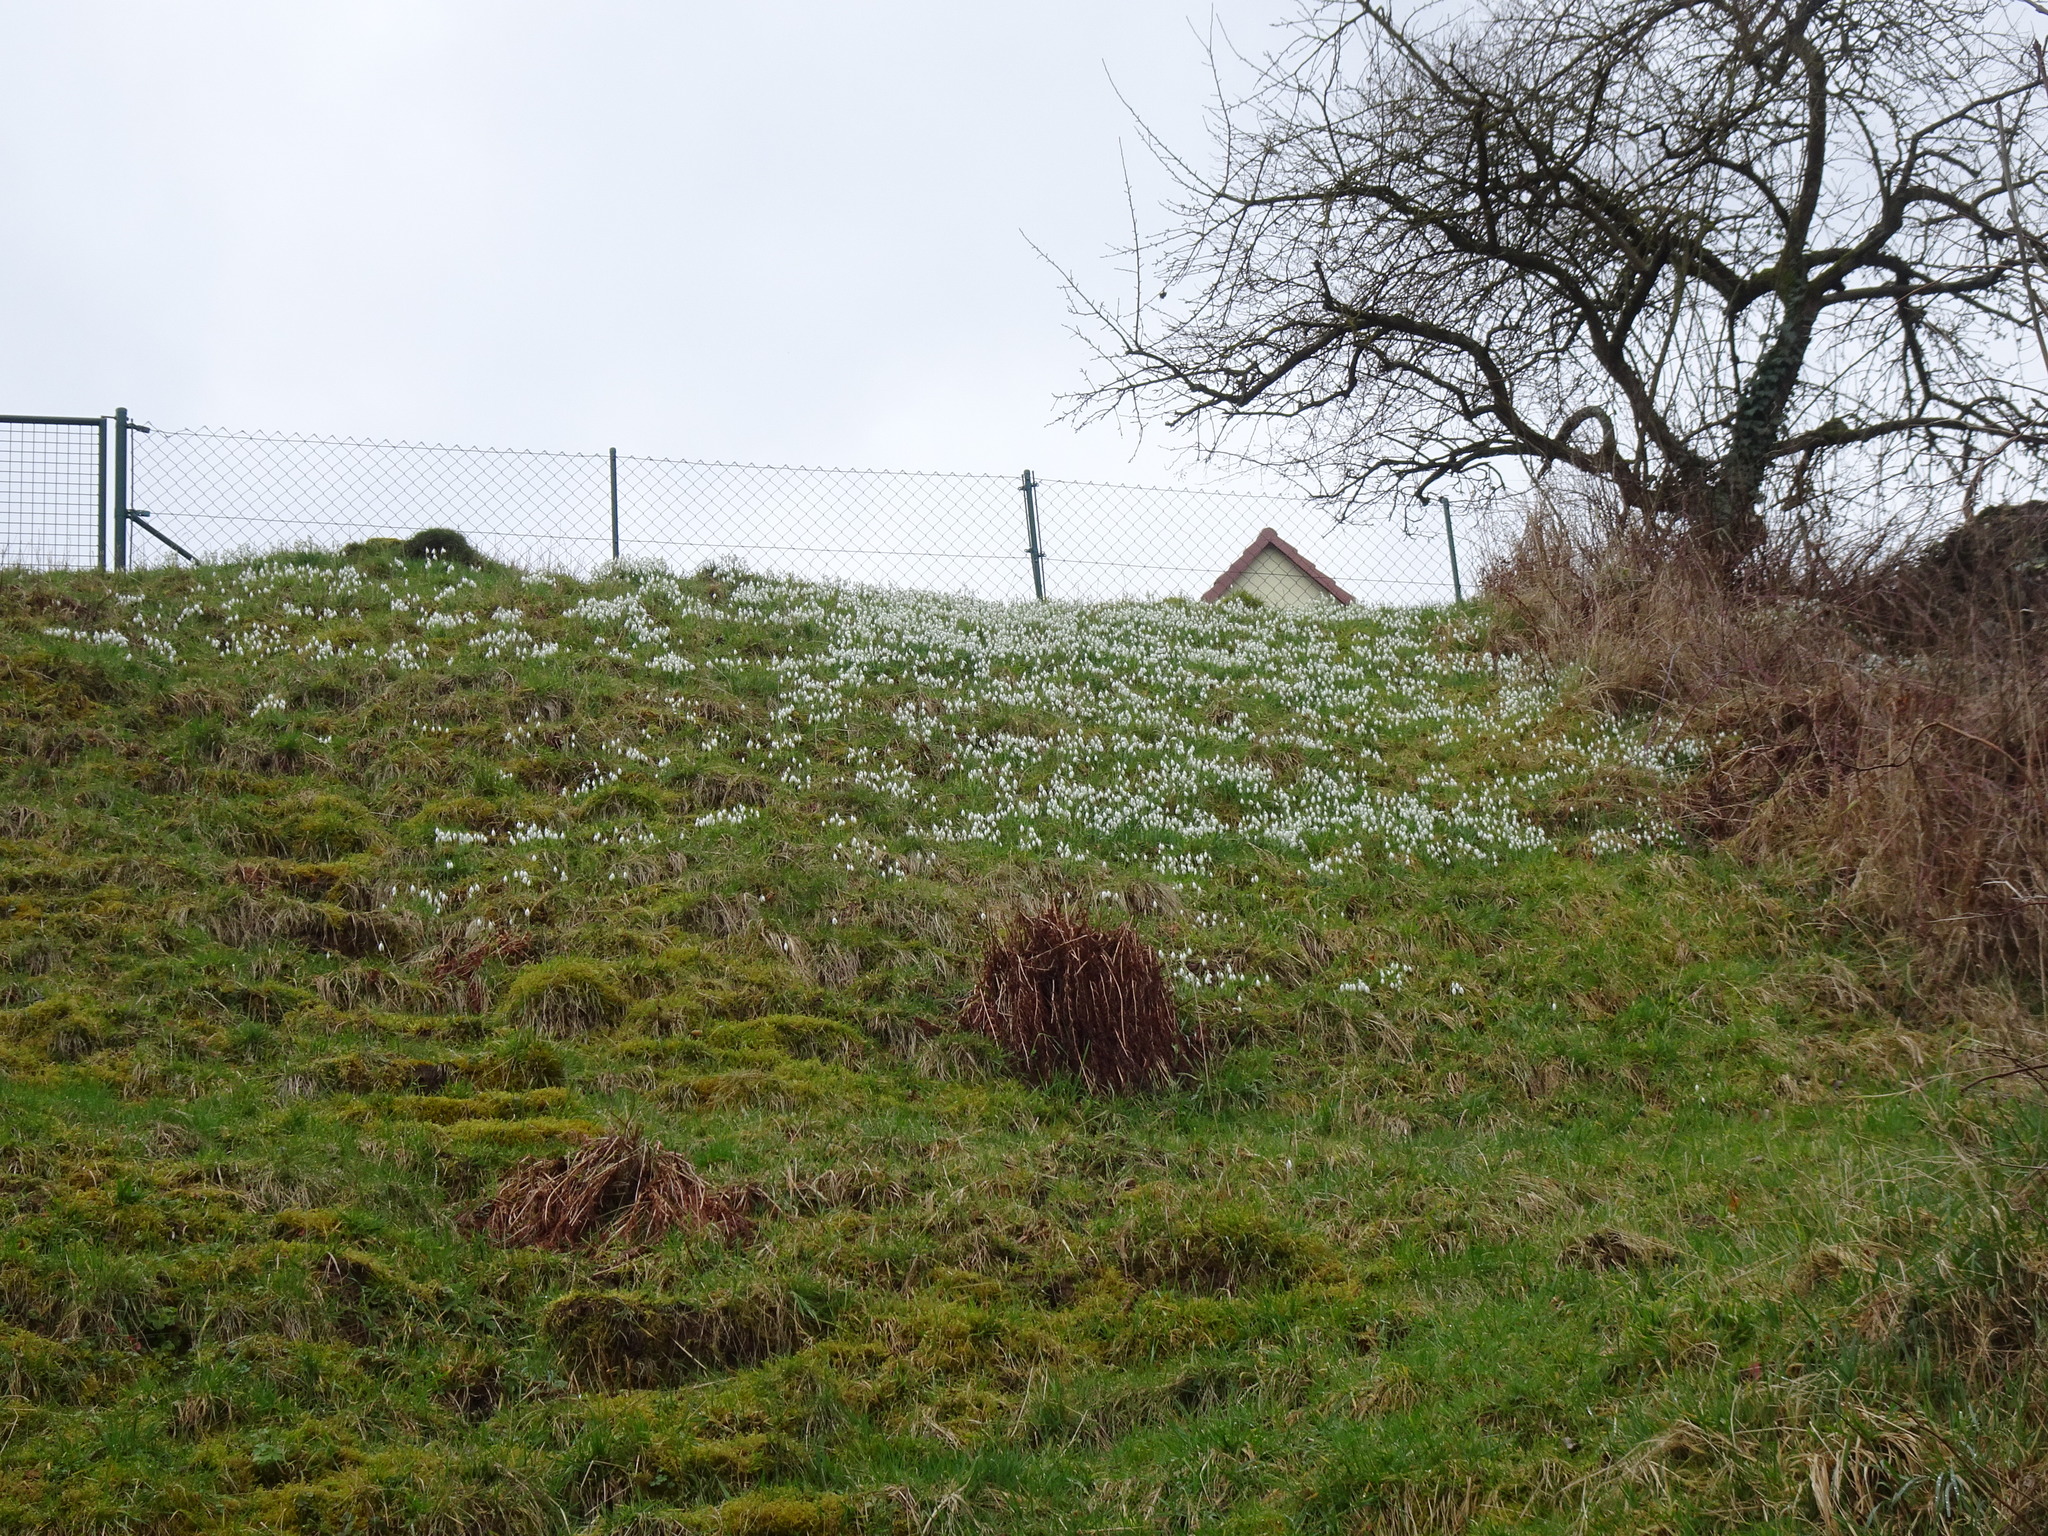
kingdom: Plantae
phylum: Tracheophyta
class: Liliopsida
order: Asparagales
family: Amaryllidaceae
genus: Galanthus
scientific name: Galanthus nivalis
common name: Snowdrop
